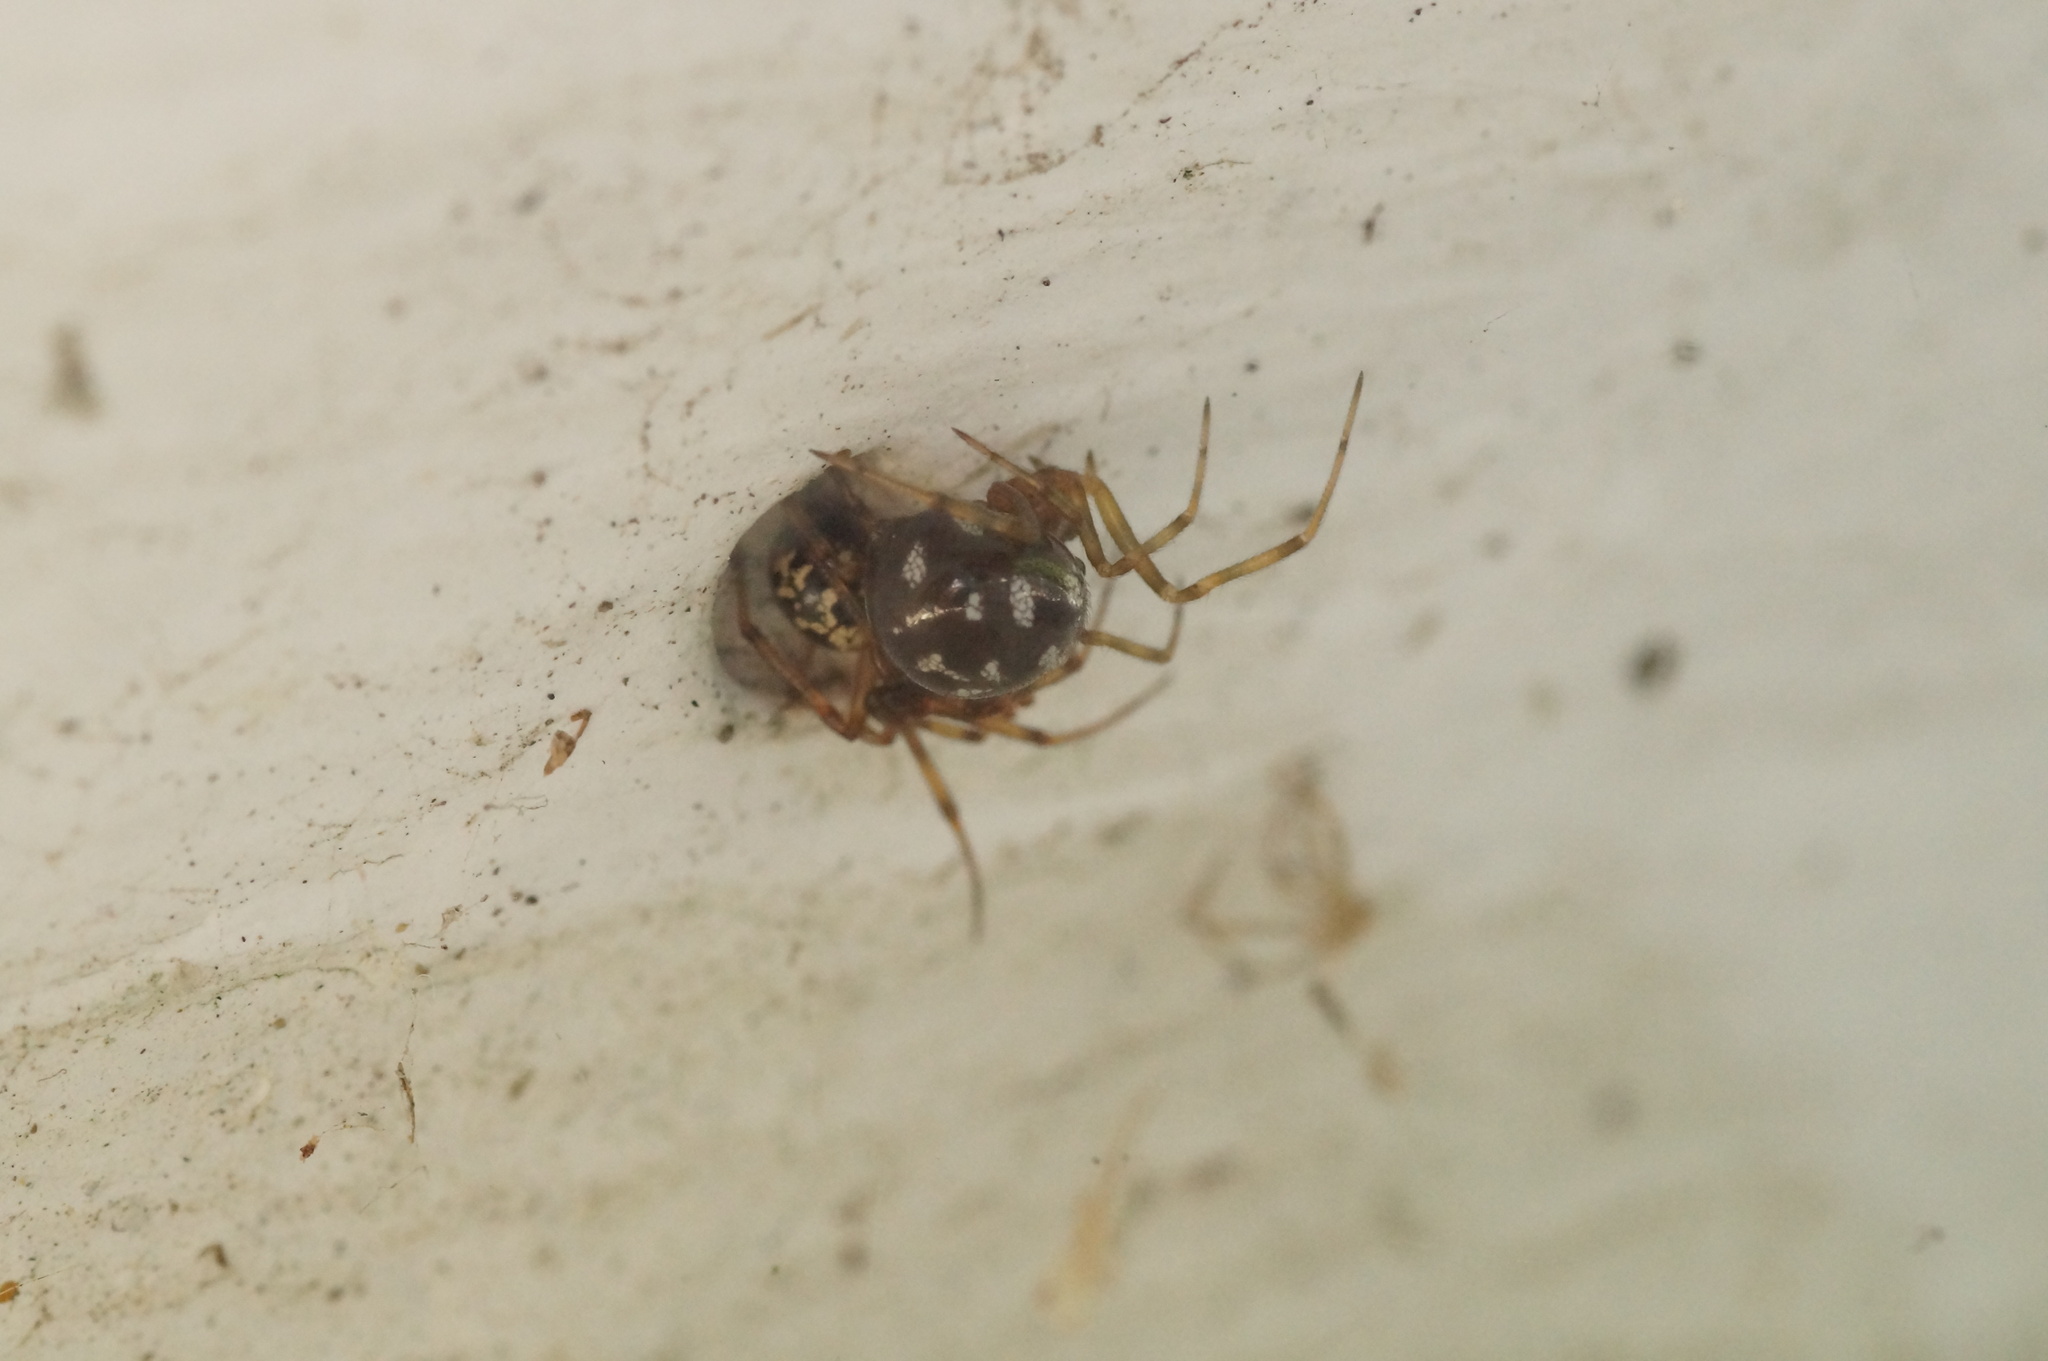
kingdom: Animalia
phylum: Arthropoda
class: Arachnida
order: Araneae
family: Theridiidae
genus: Steatoda
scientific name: Steatoda triangulosa
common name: Triangulate bud spider
